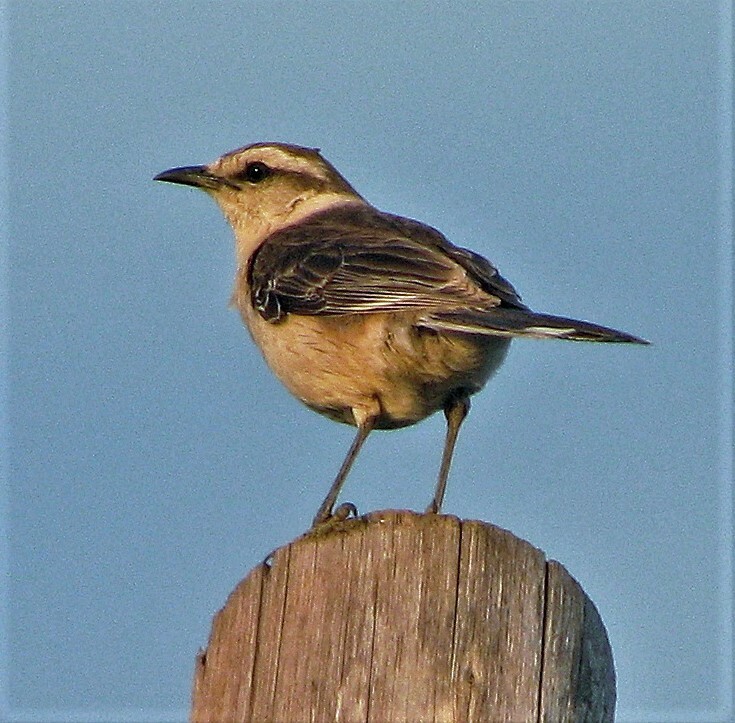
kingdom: Animalia
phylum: Chordata
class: Aves
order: Passeriformes
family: Mimidae
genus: Mimus
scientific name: Mimus saturninus
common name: Chalk-browed mockingbird
